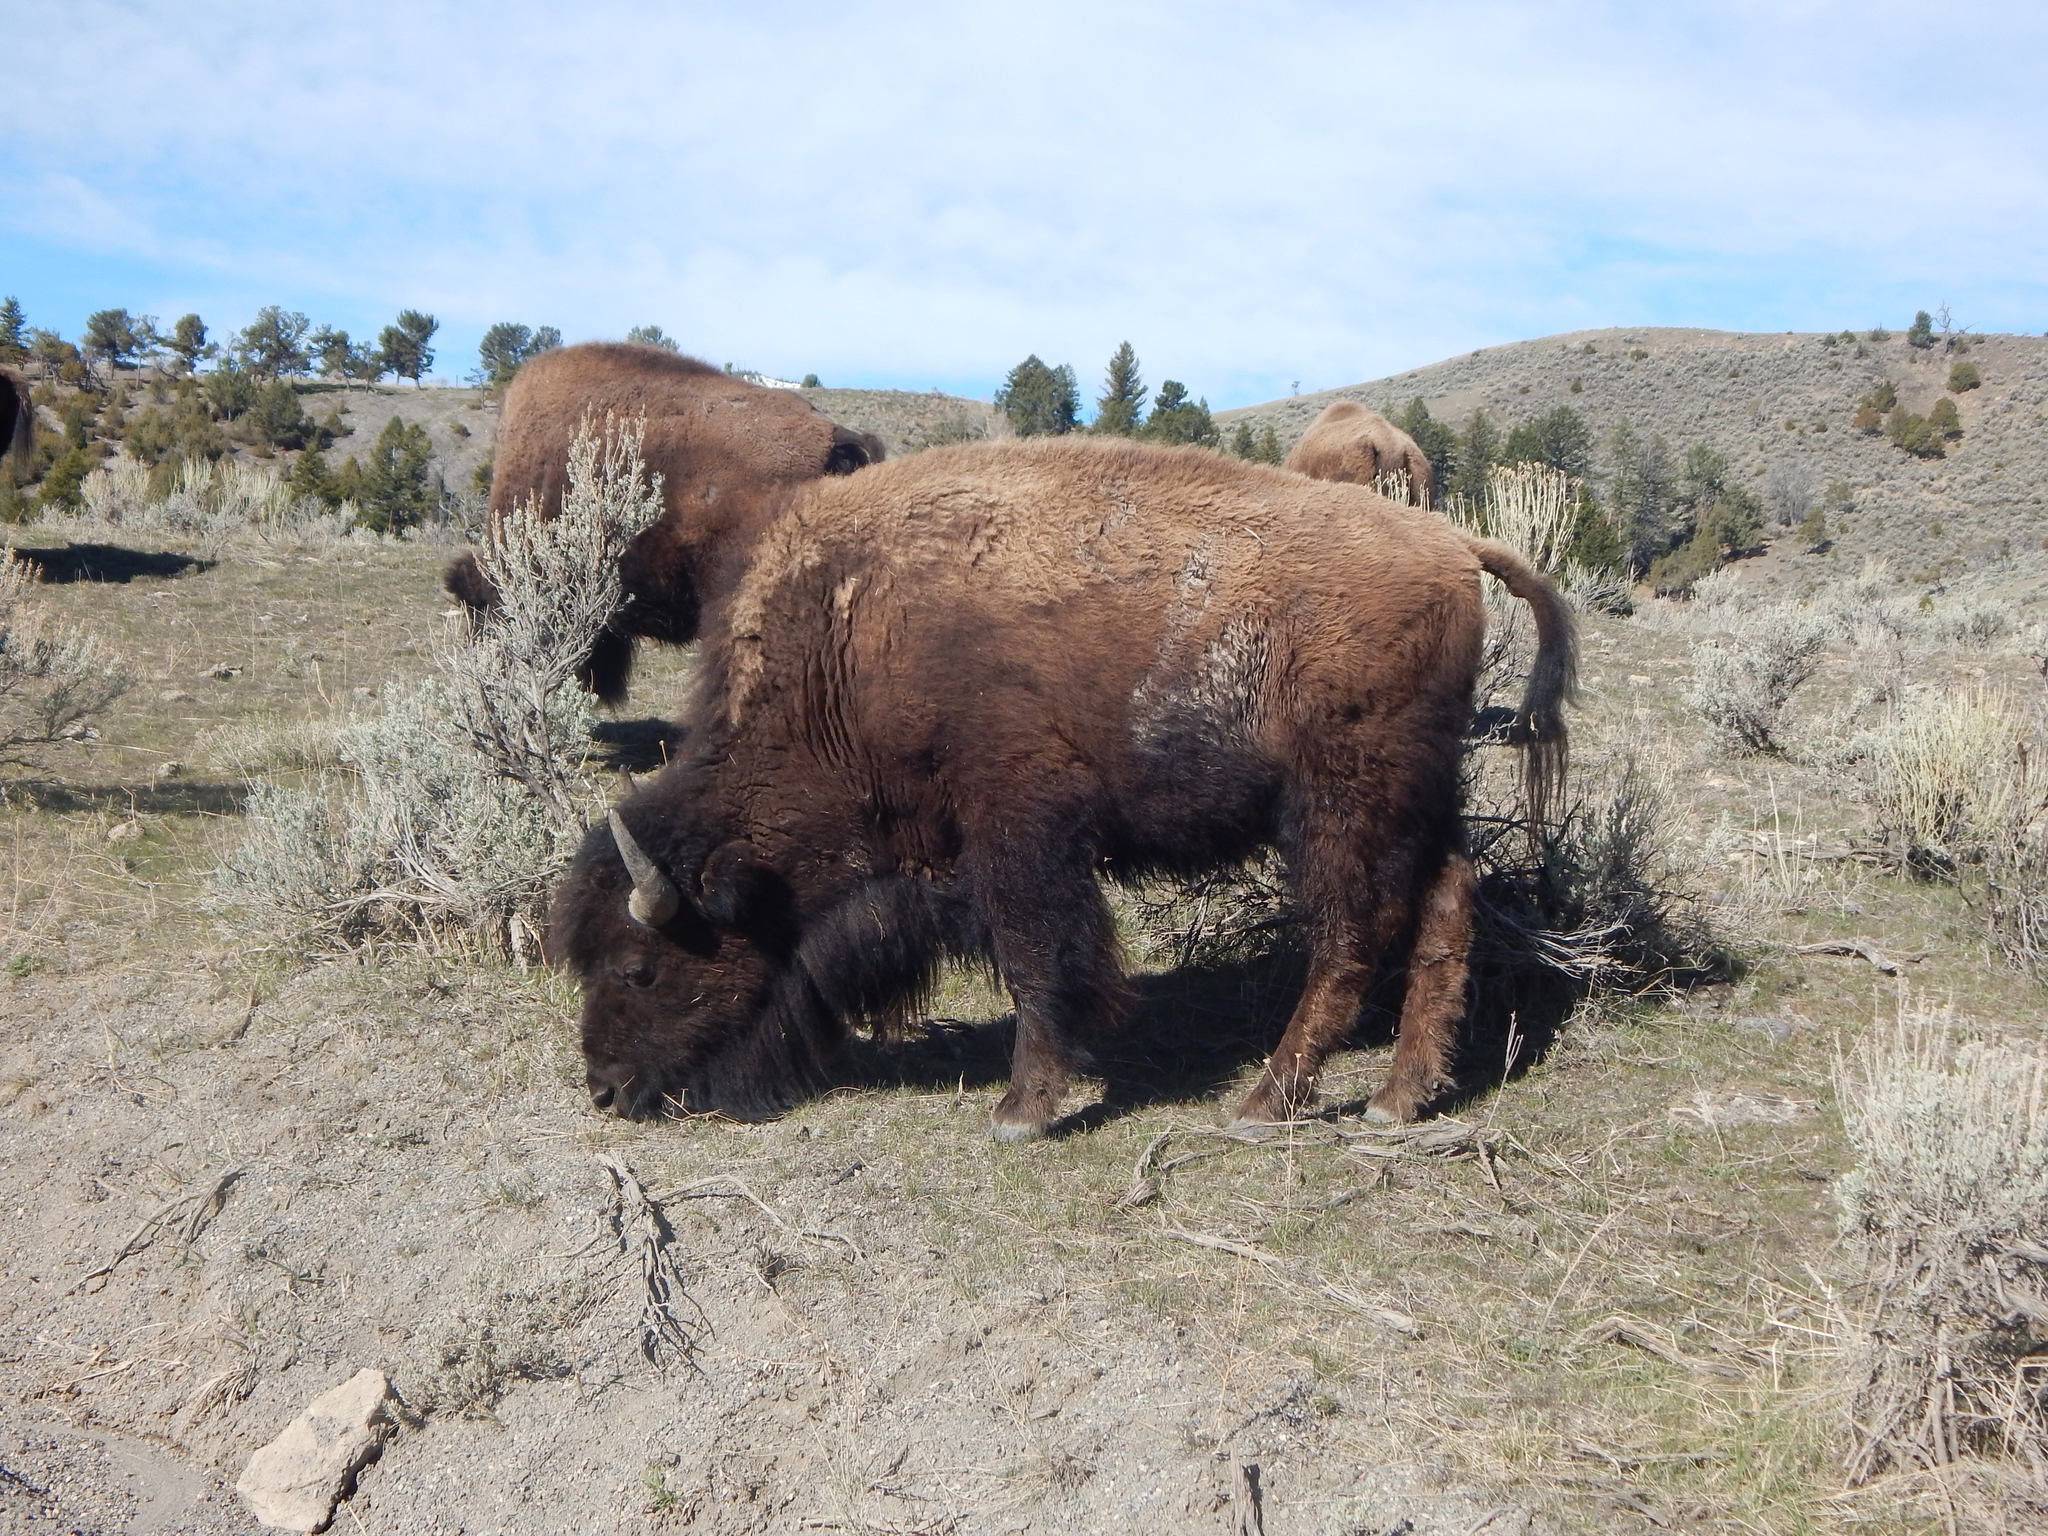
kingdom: Animalia
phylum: Chordata
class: Mammalia
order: Artiodactyla
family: Bovidae
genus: Bison
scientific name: Bison bison
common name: American bison
